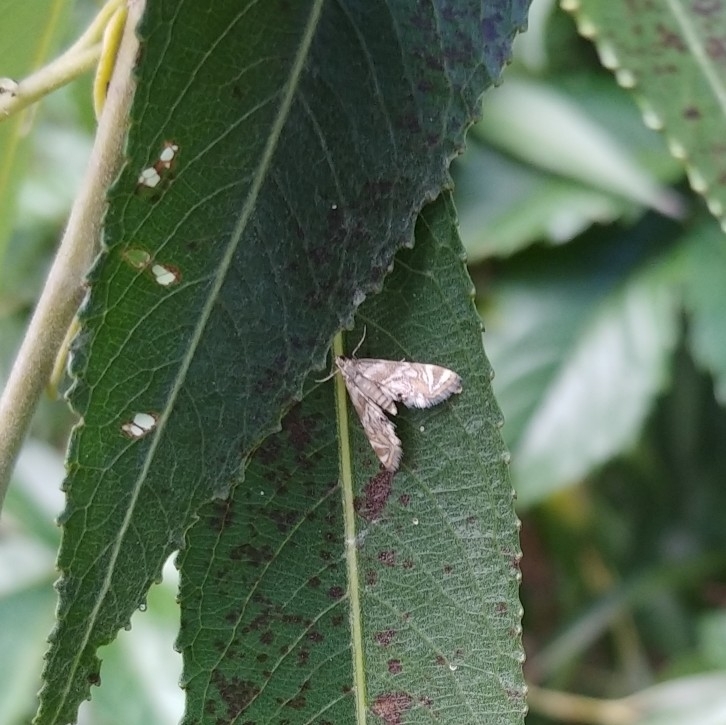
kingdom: Animalia
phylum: Arthropoda
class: Insecta
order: Lepidoptera
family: Crambidae
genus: Petrophila
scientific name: Petrophila canadensis
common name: Canadian petrophila
